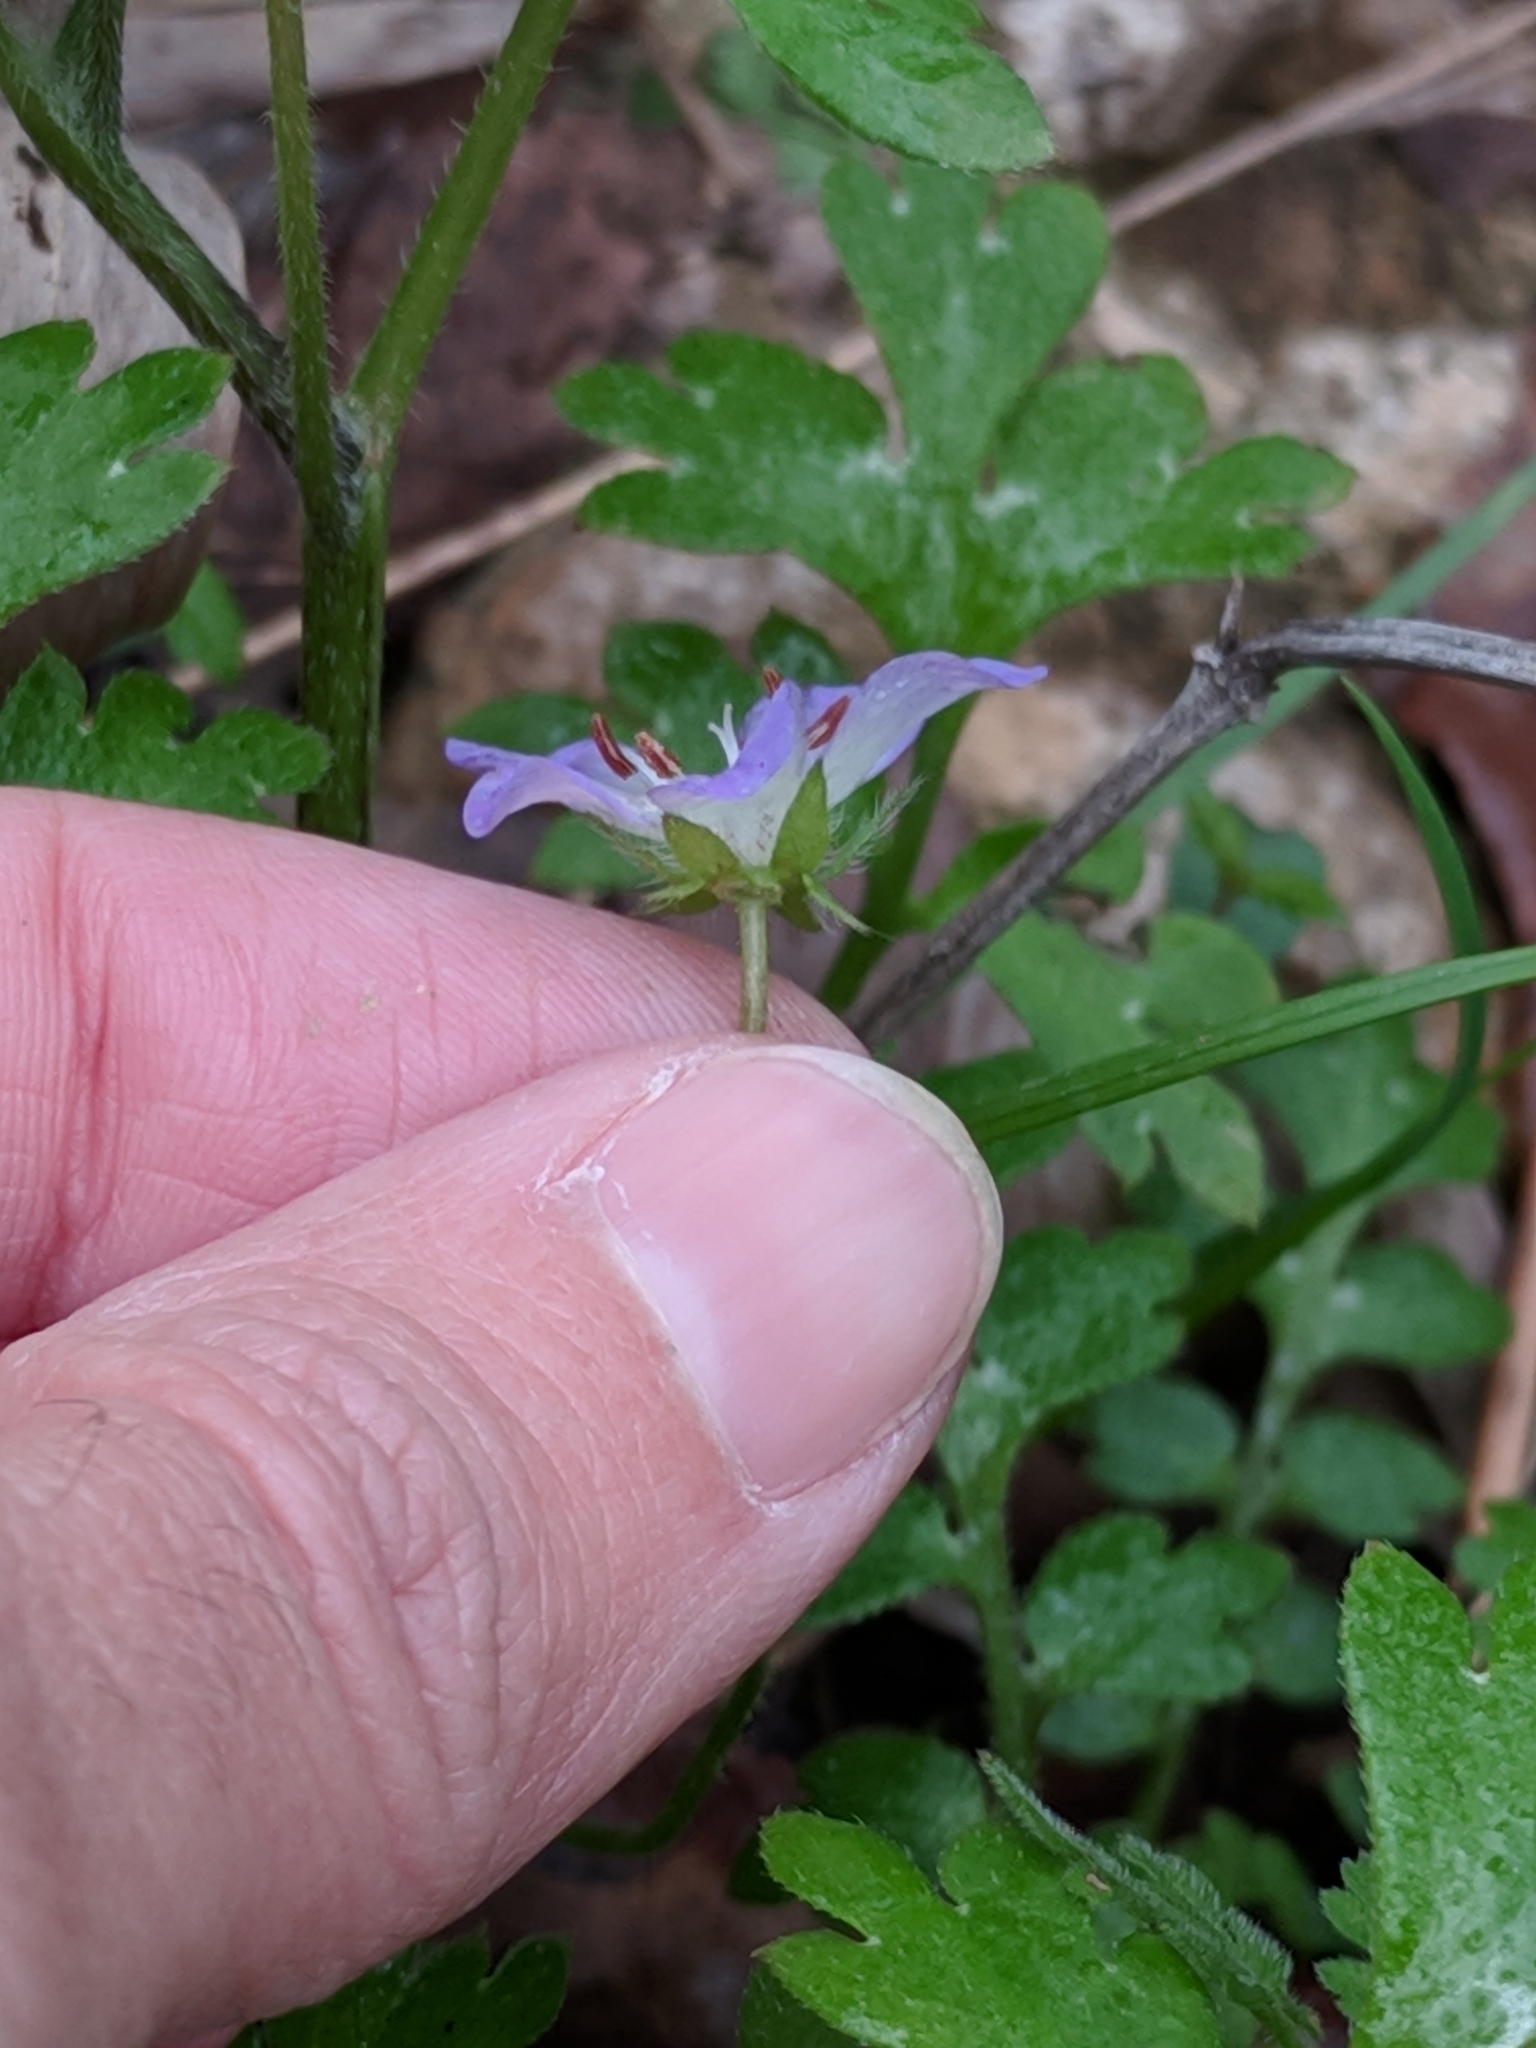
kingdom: Plantae
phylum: Tracheophyta
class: Magnoliopsida
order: Boraginales
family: Hydrophyllaceae
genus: Nemophila
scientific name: Nemophila phacelioides
